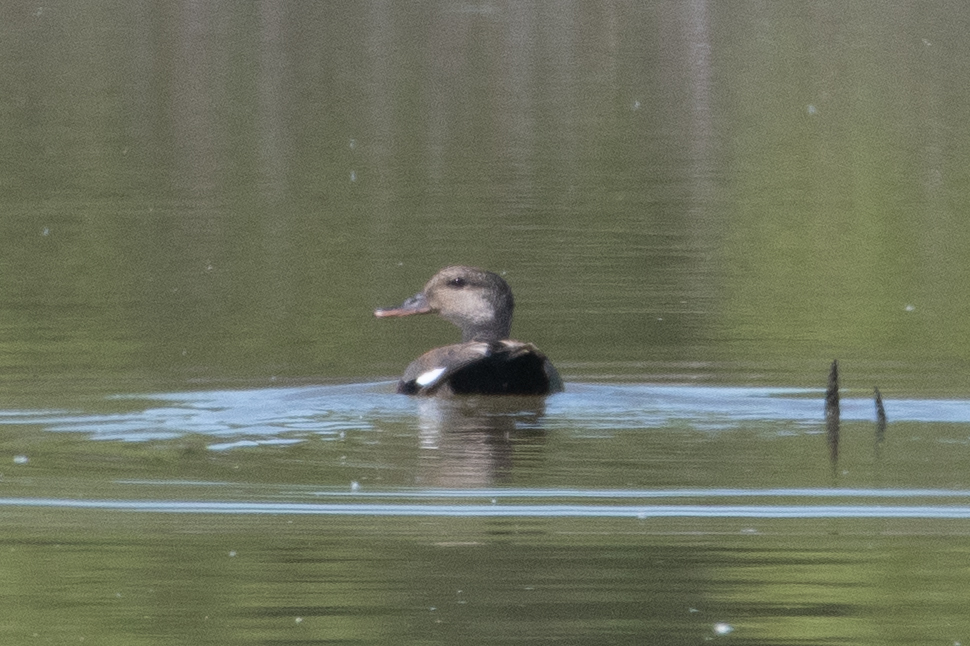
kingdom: Animalia
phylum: Chordata
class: Aves
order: Anseriformes
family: Anatidae
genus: Mareca
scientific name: Mareca strepera
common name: Gadwall
